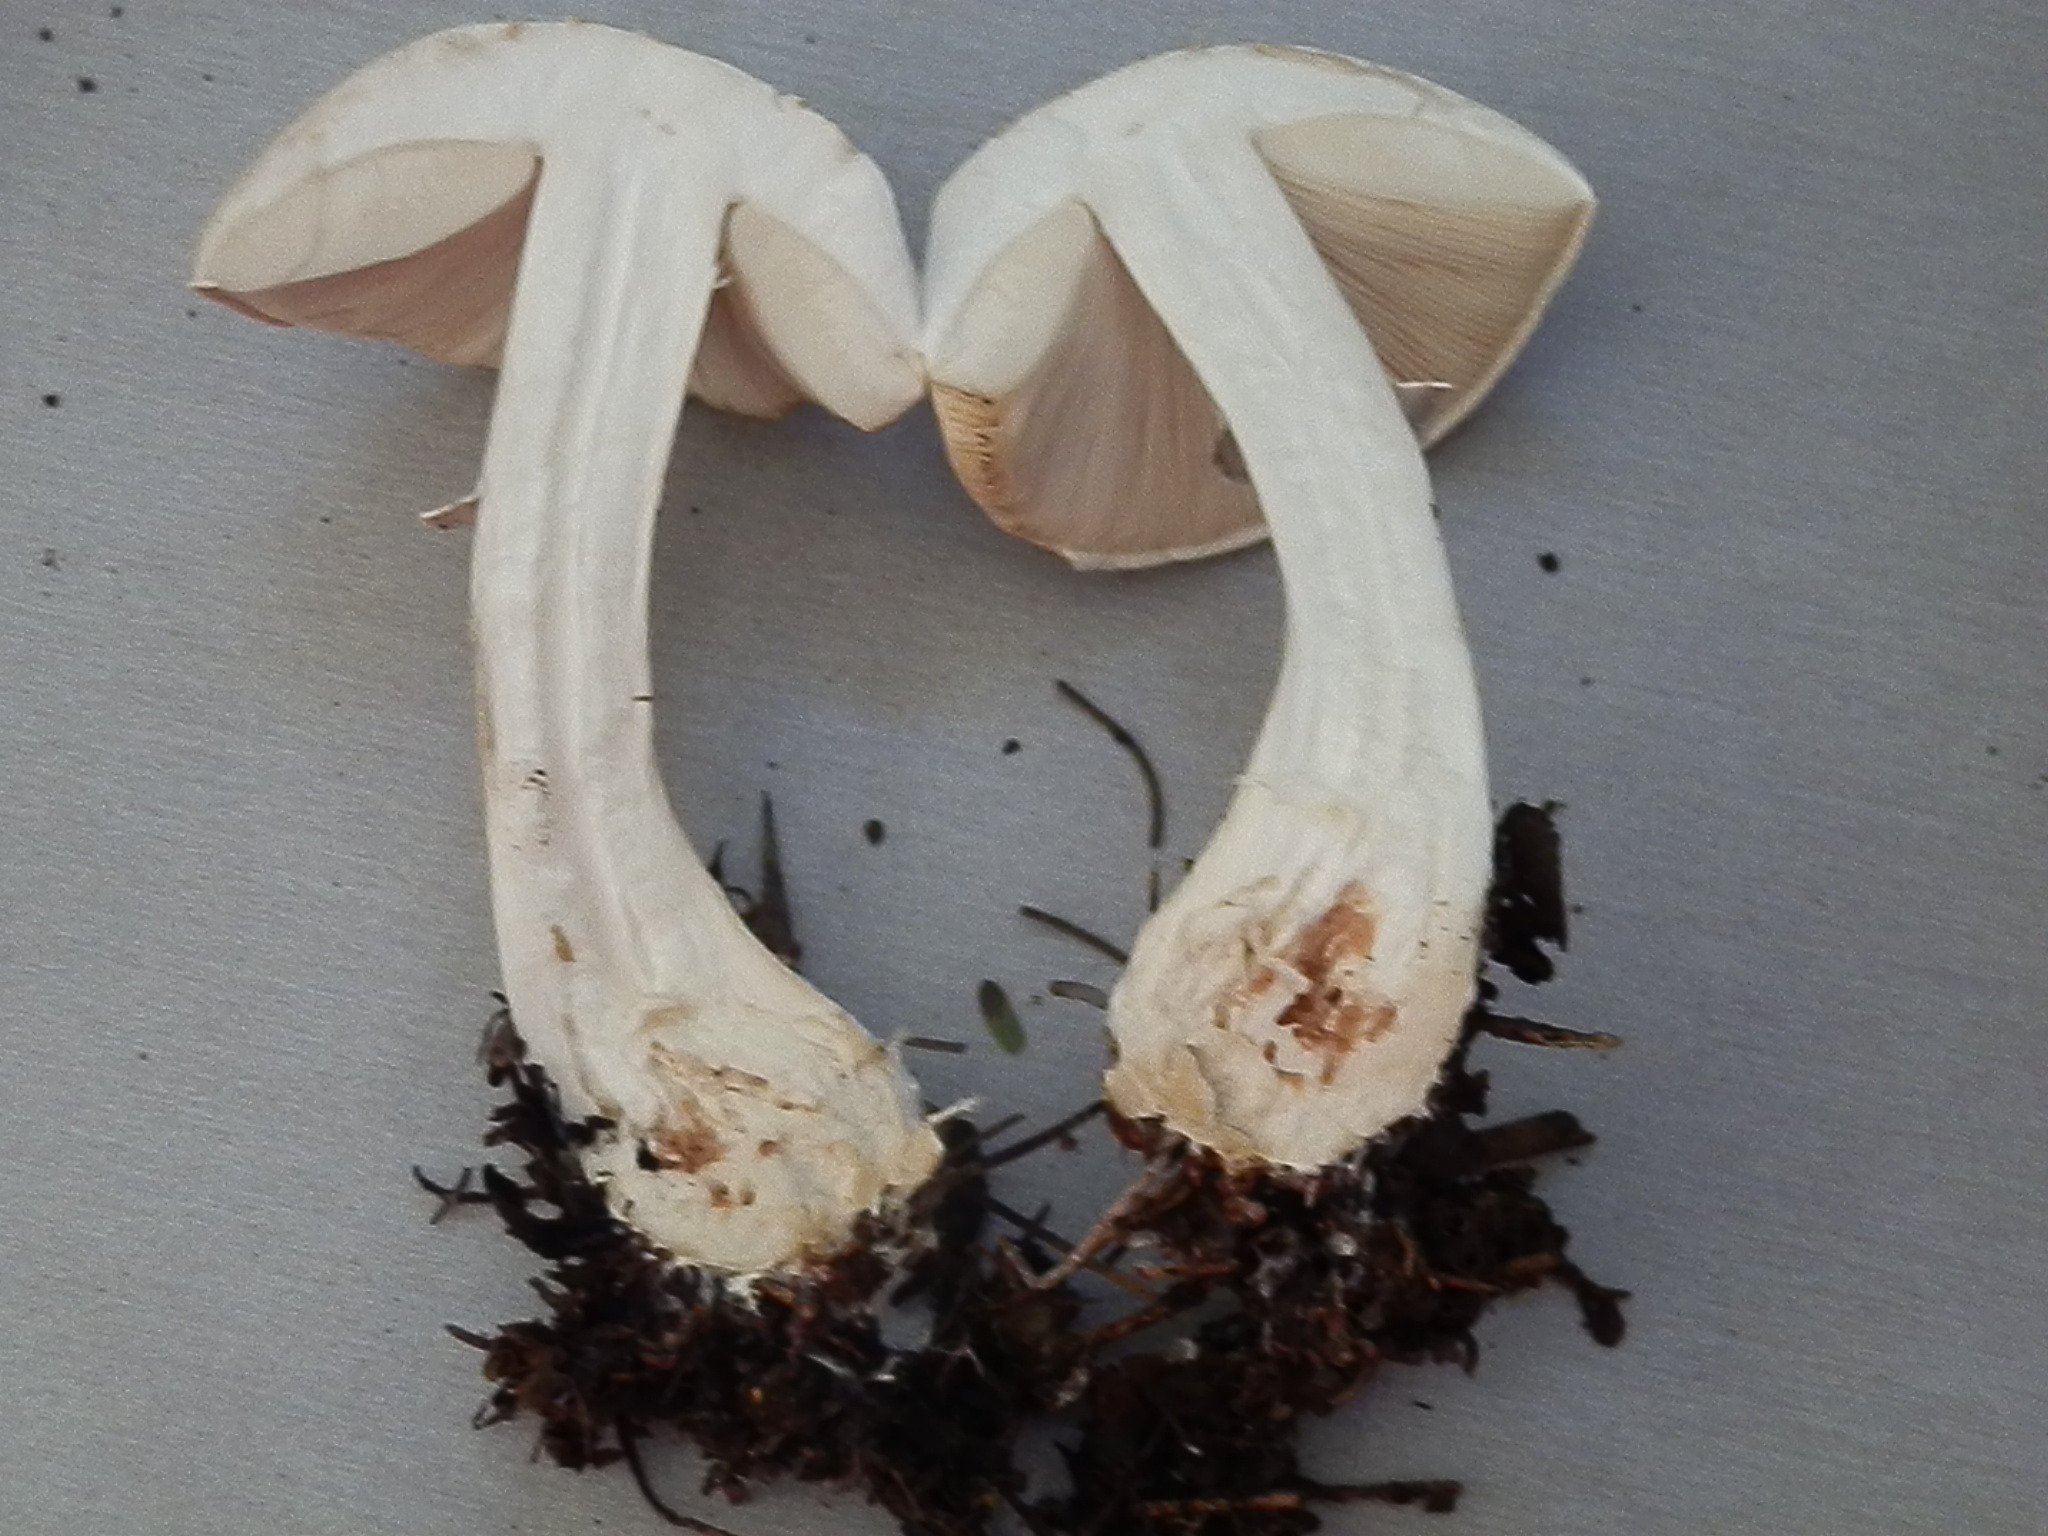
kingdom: Fungi
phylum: Basidiomycota
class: Agaricomycetes
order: Agaricales
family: Agaricaceae
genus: Leucoagaricus
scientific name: Leucoagaricus leucothites
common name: White dapperling
